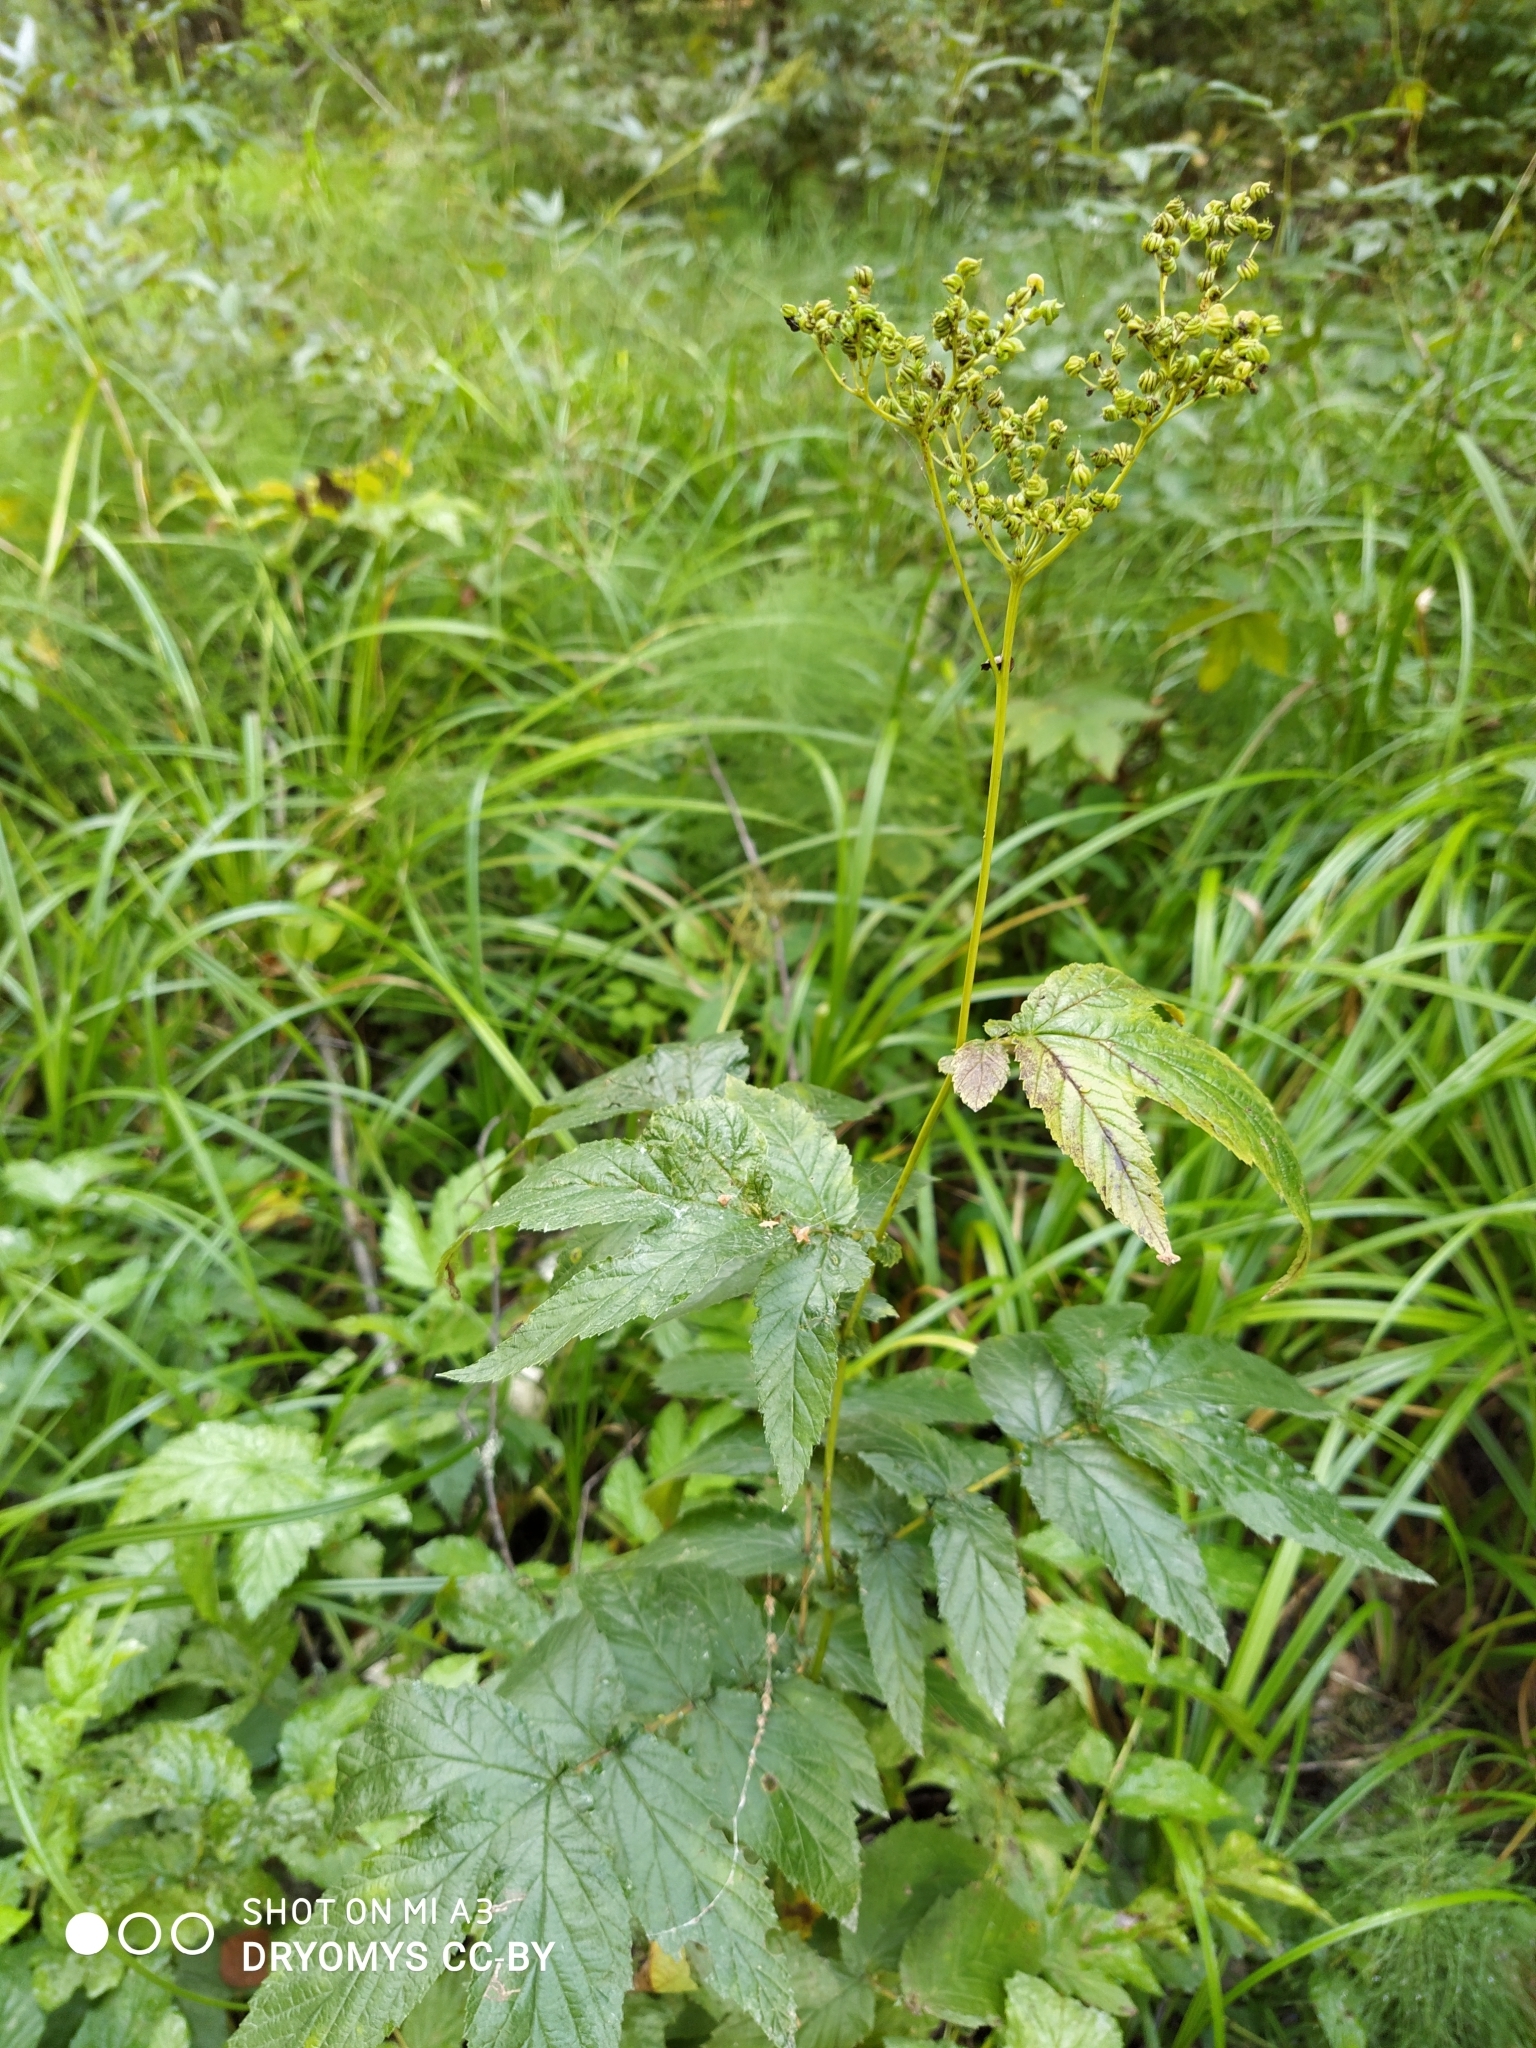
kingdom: Plantae
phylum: Tracheophyta
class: Magnoliopsida
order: Rosales
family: Rosaceae
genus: Filipendula
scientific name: Filipendula ulmaria
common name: Meadowsweet
